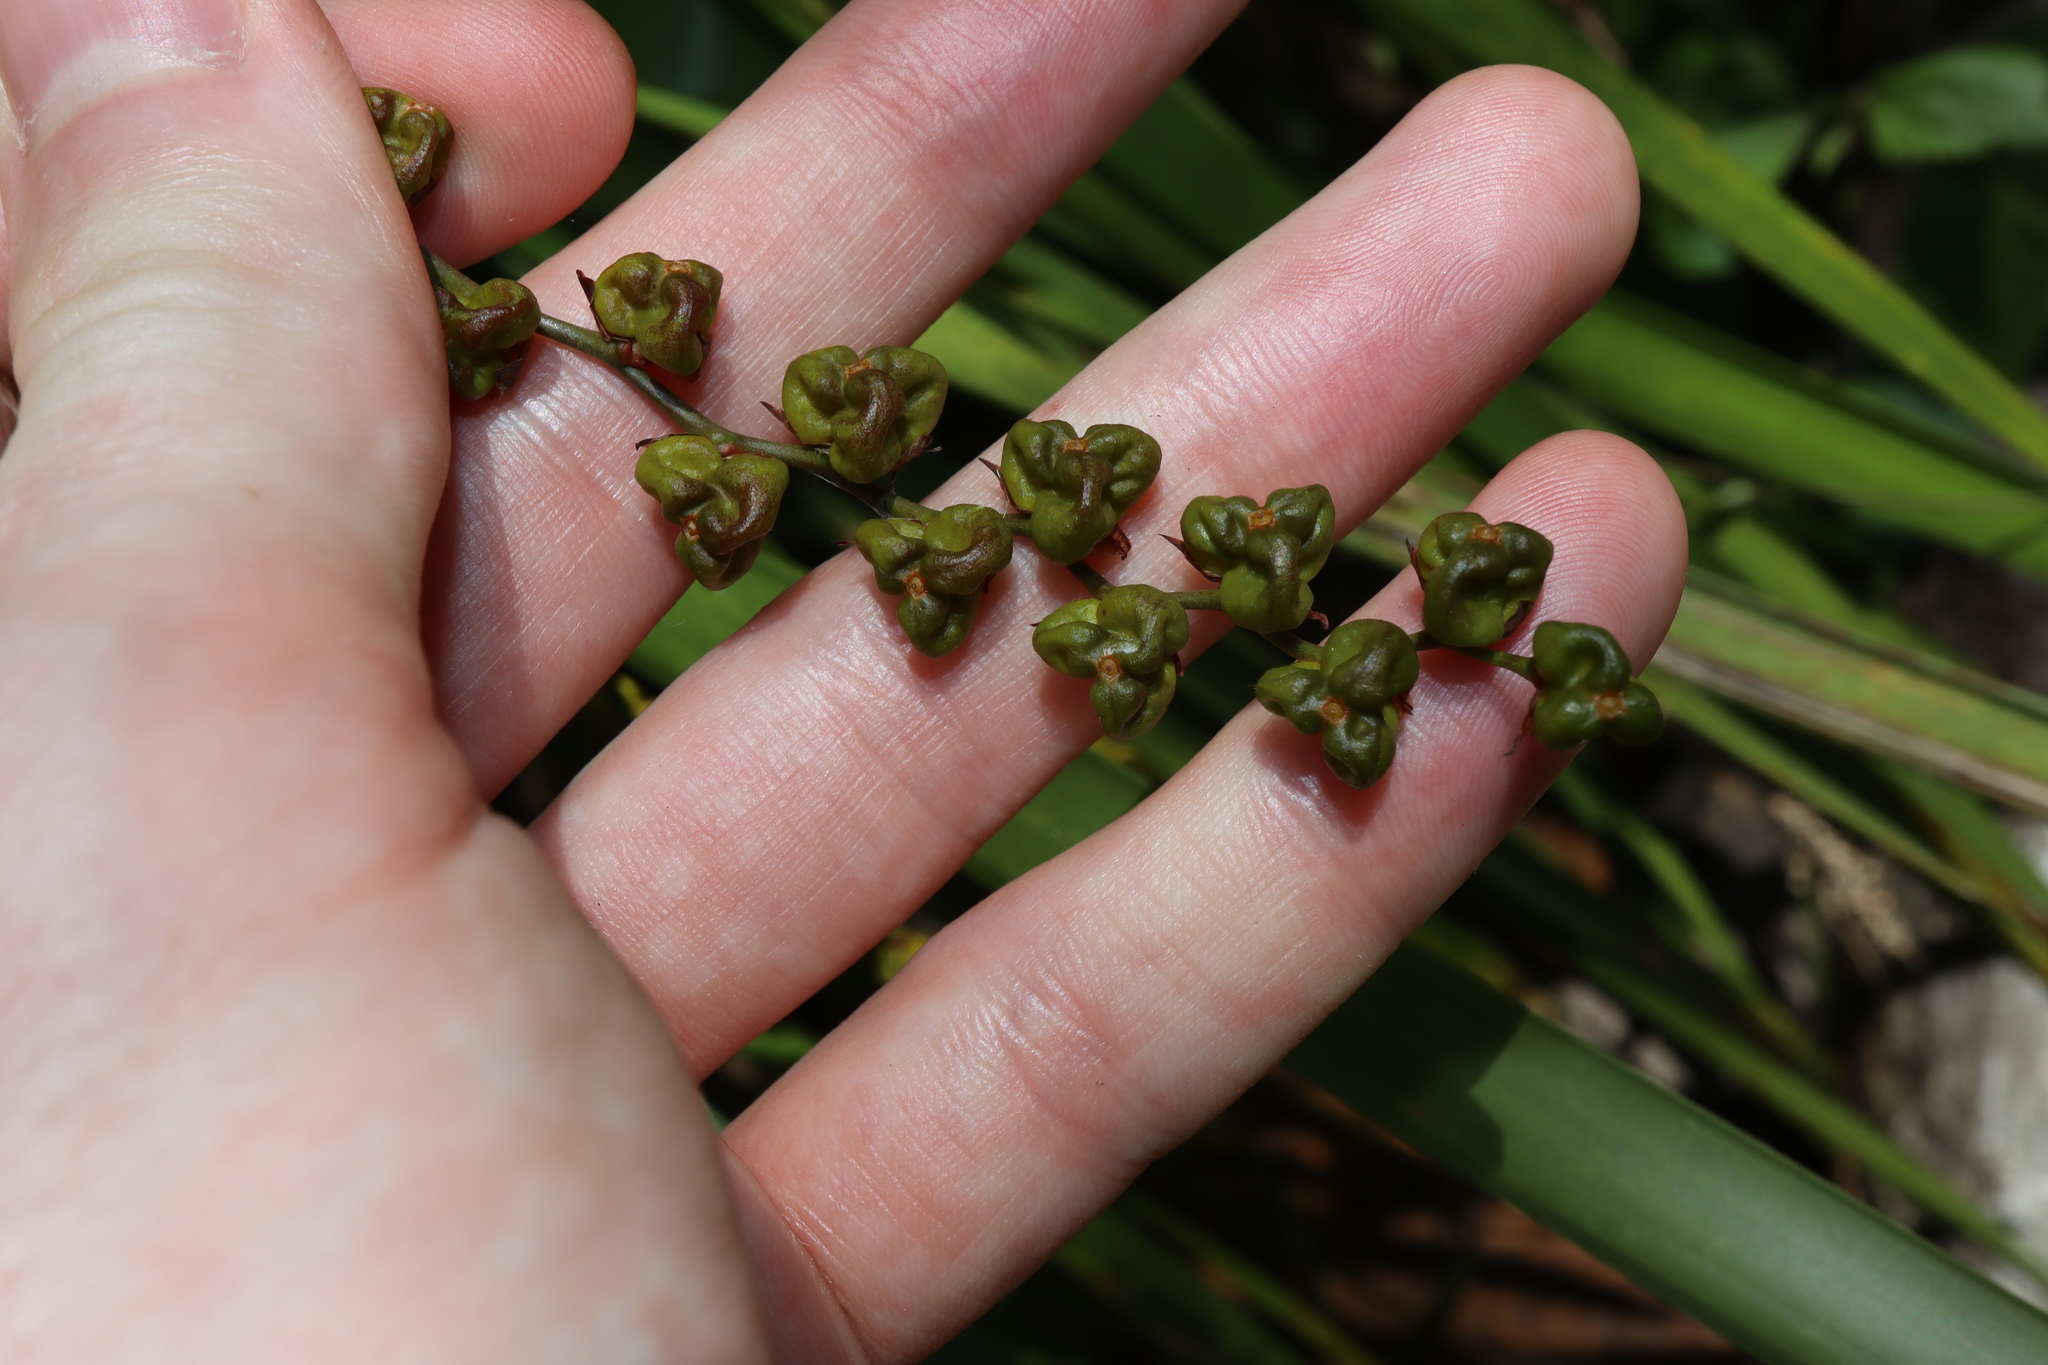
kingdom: Plantae
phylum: Tracheophyta
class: Liliopsida
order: Asparagales
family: Iridaceae
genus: Crocosmia
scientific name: Crocosmia crocosmiiflora
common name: Montbretia
